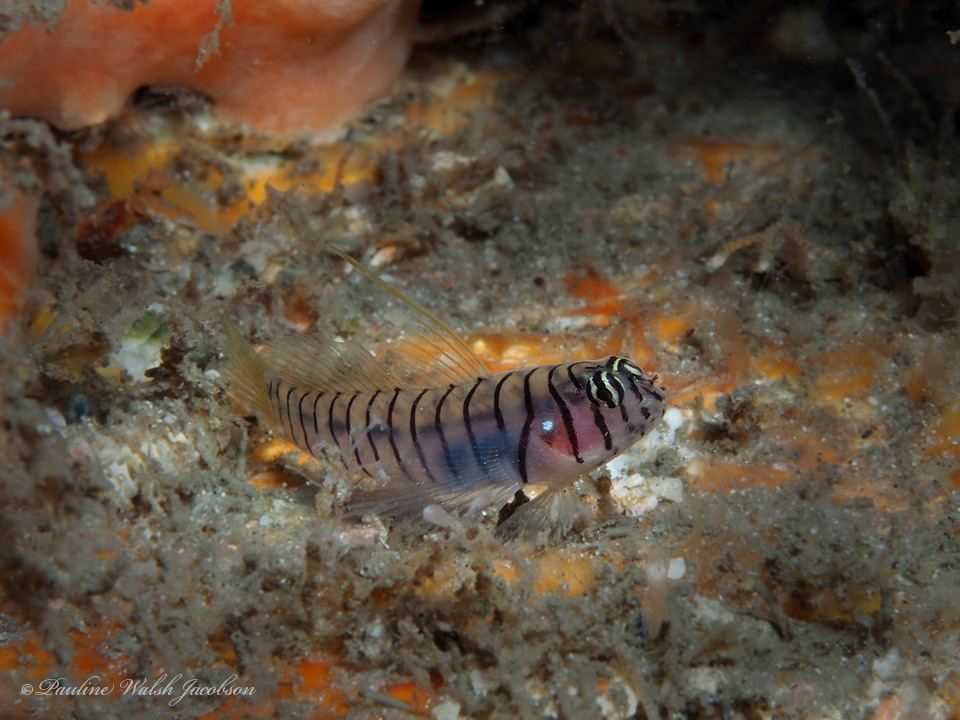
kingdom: Animalia
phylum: Chordata
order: Perciformes
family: Gobiidae
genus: Tigrigobius
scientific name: Tigrigobius macrodon
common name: Tiger goby
